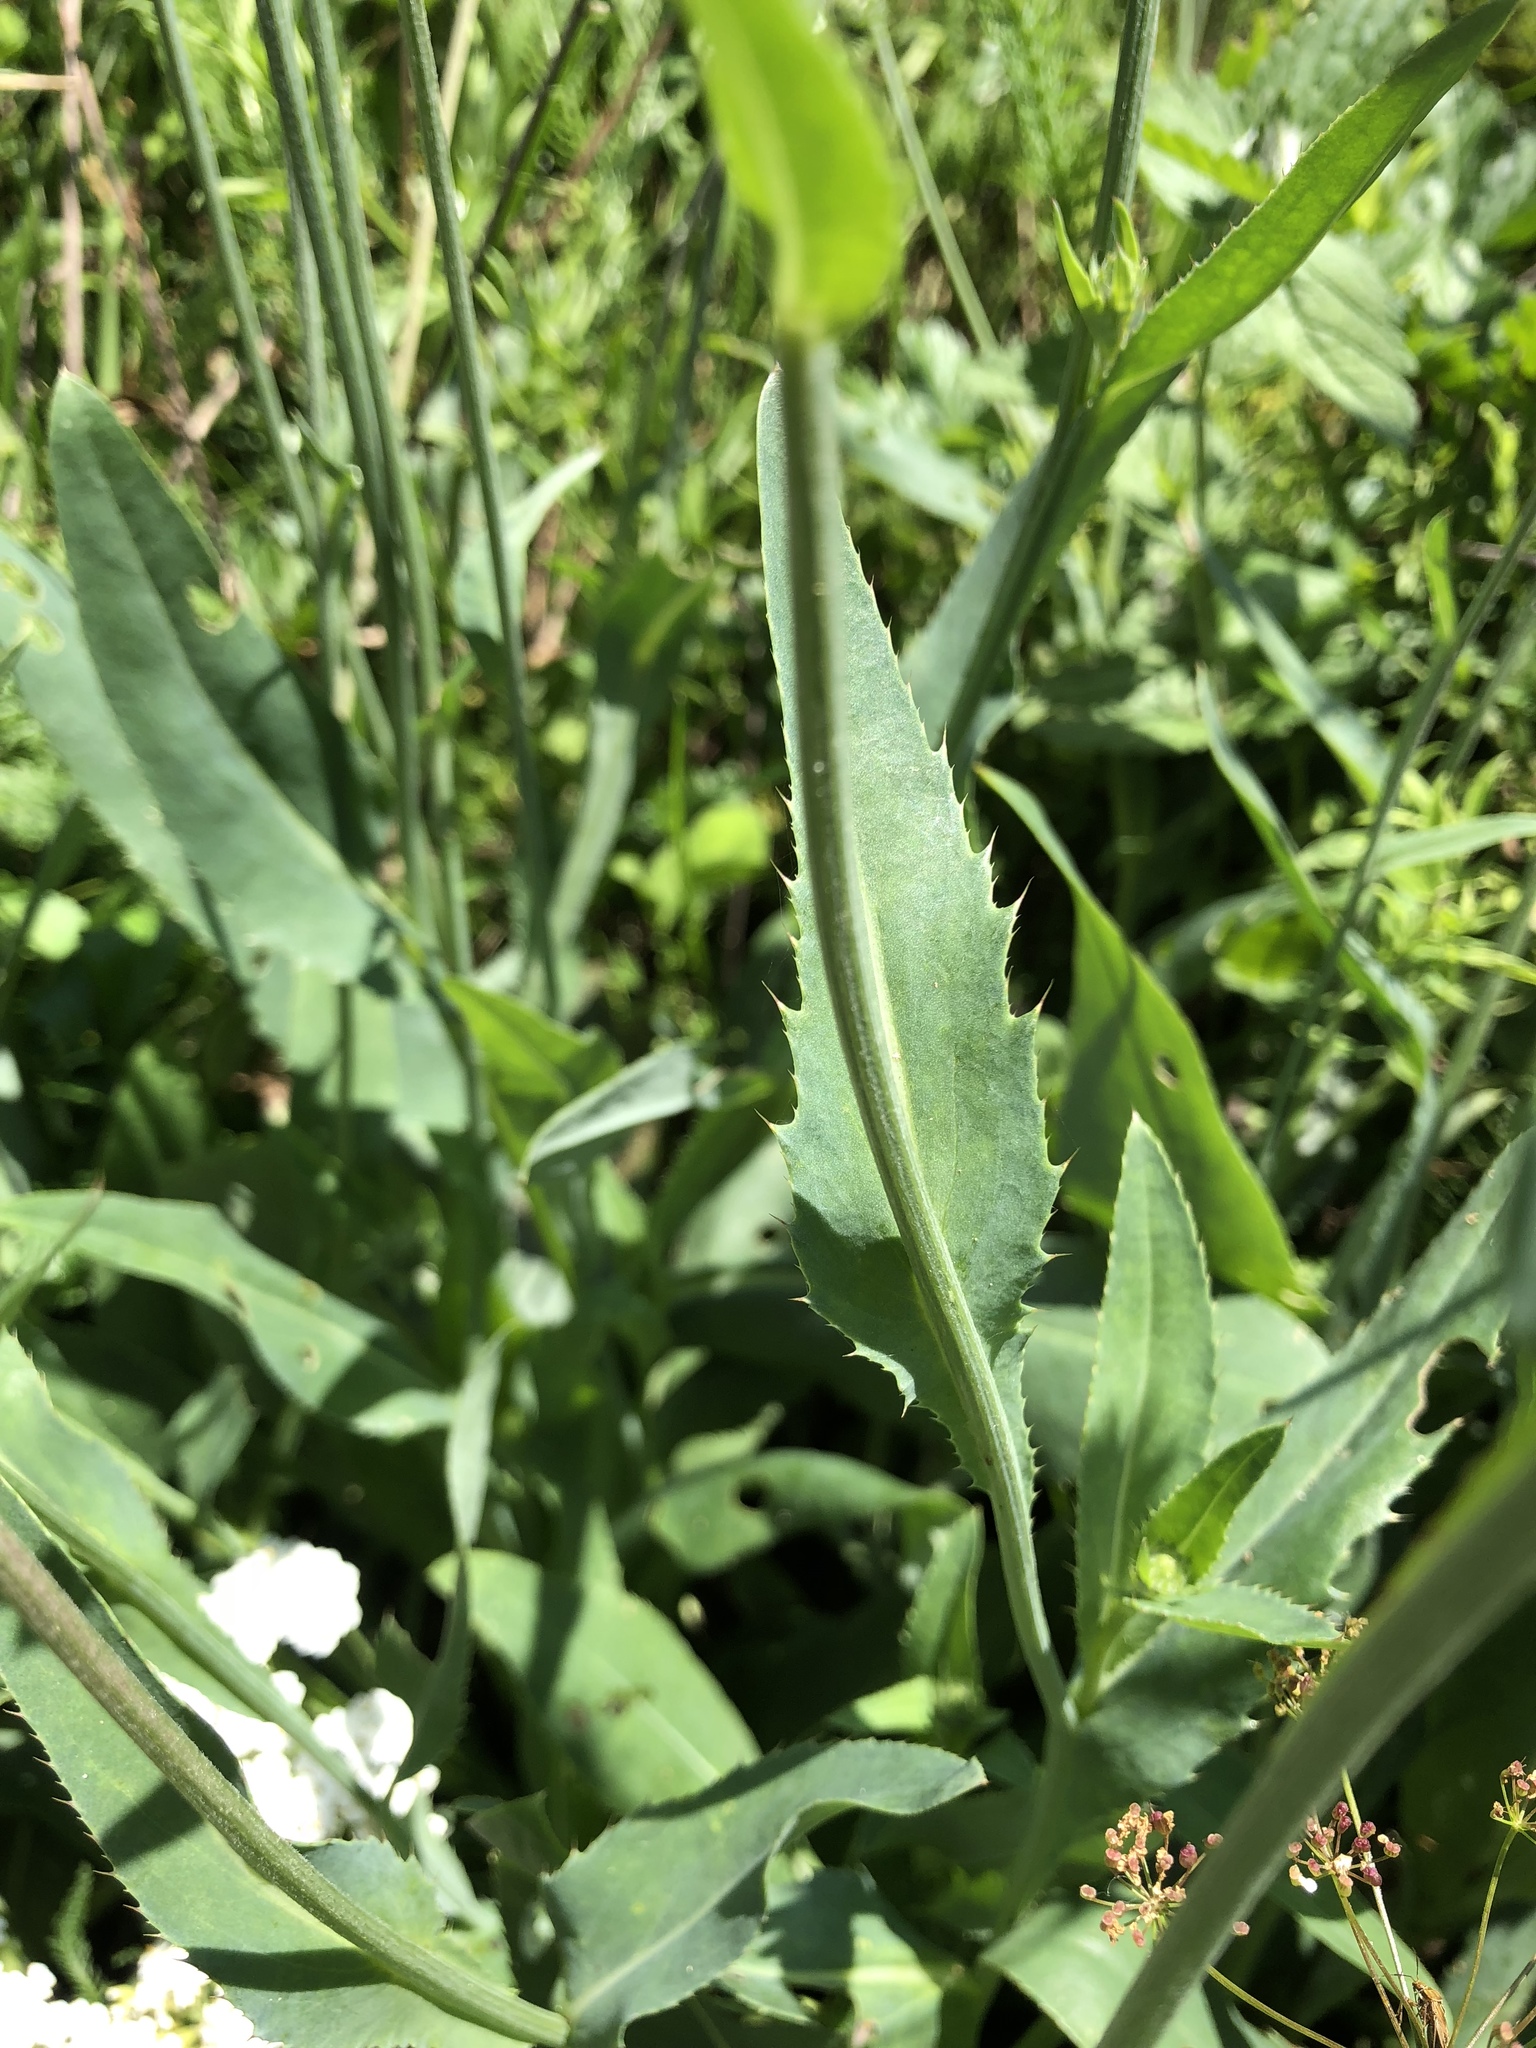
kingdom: Plantae
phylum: Tracheophyta
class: Magnoliopsida
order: Asterales
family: Asteraceae
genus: Carduus
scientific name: Carduus defloratus
